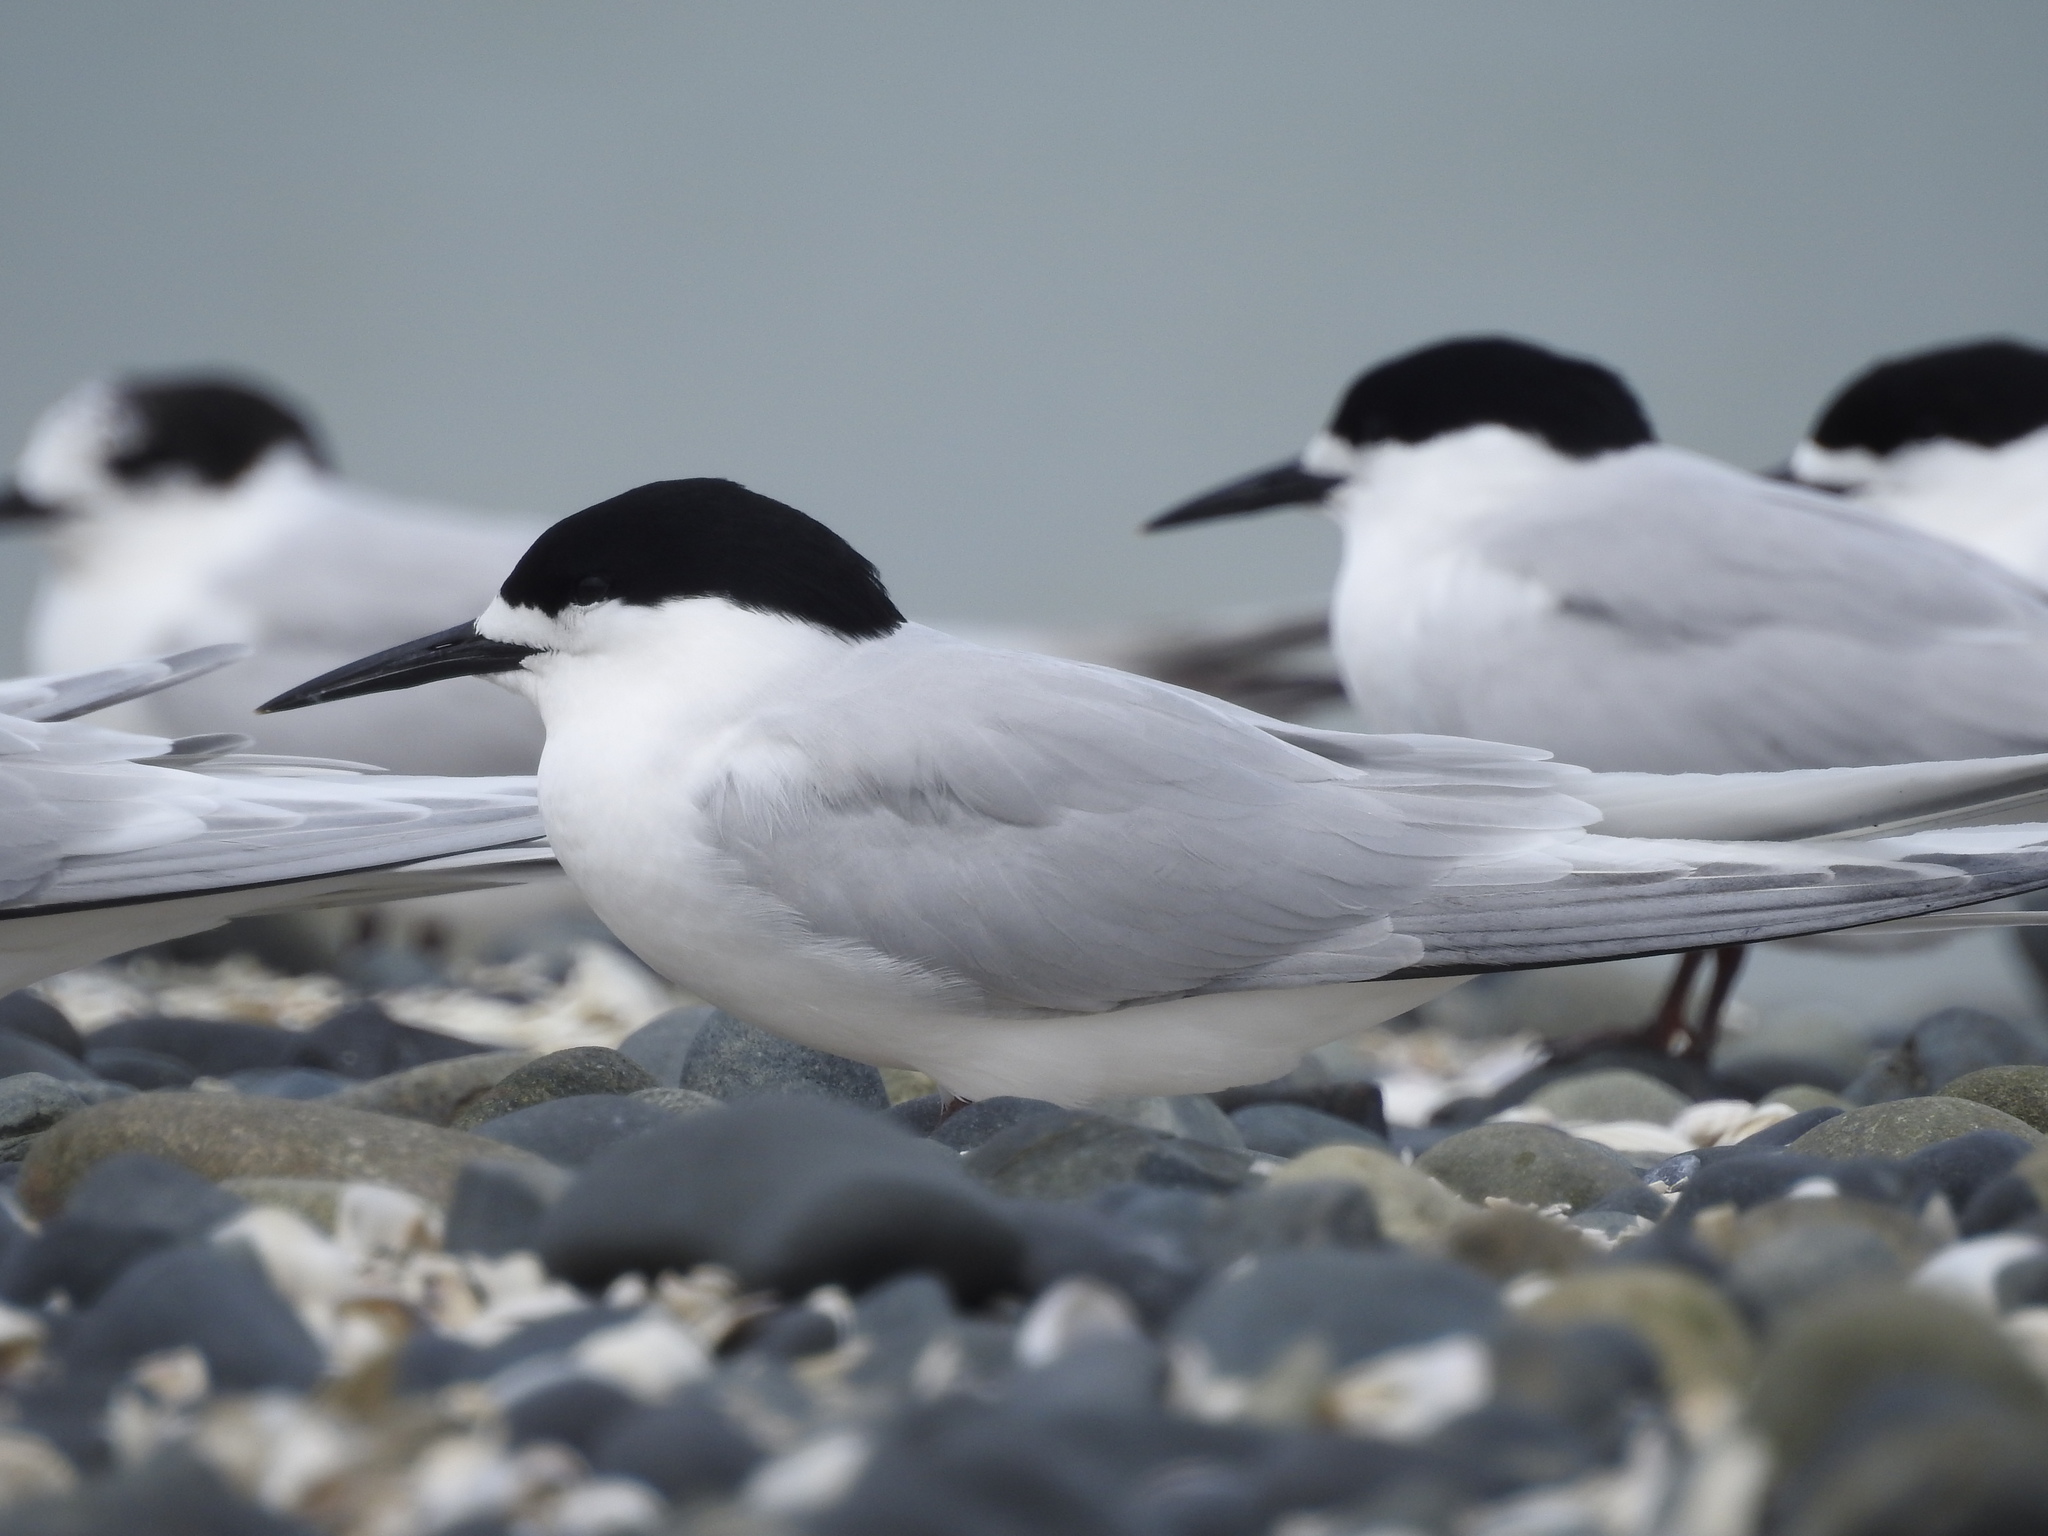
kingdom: Animalia
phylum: Chordata
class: Aves
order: Charadriiformes
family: Laridae
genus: Sterna
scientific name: Sterna striata
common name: White-fronted tern
